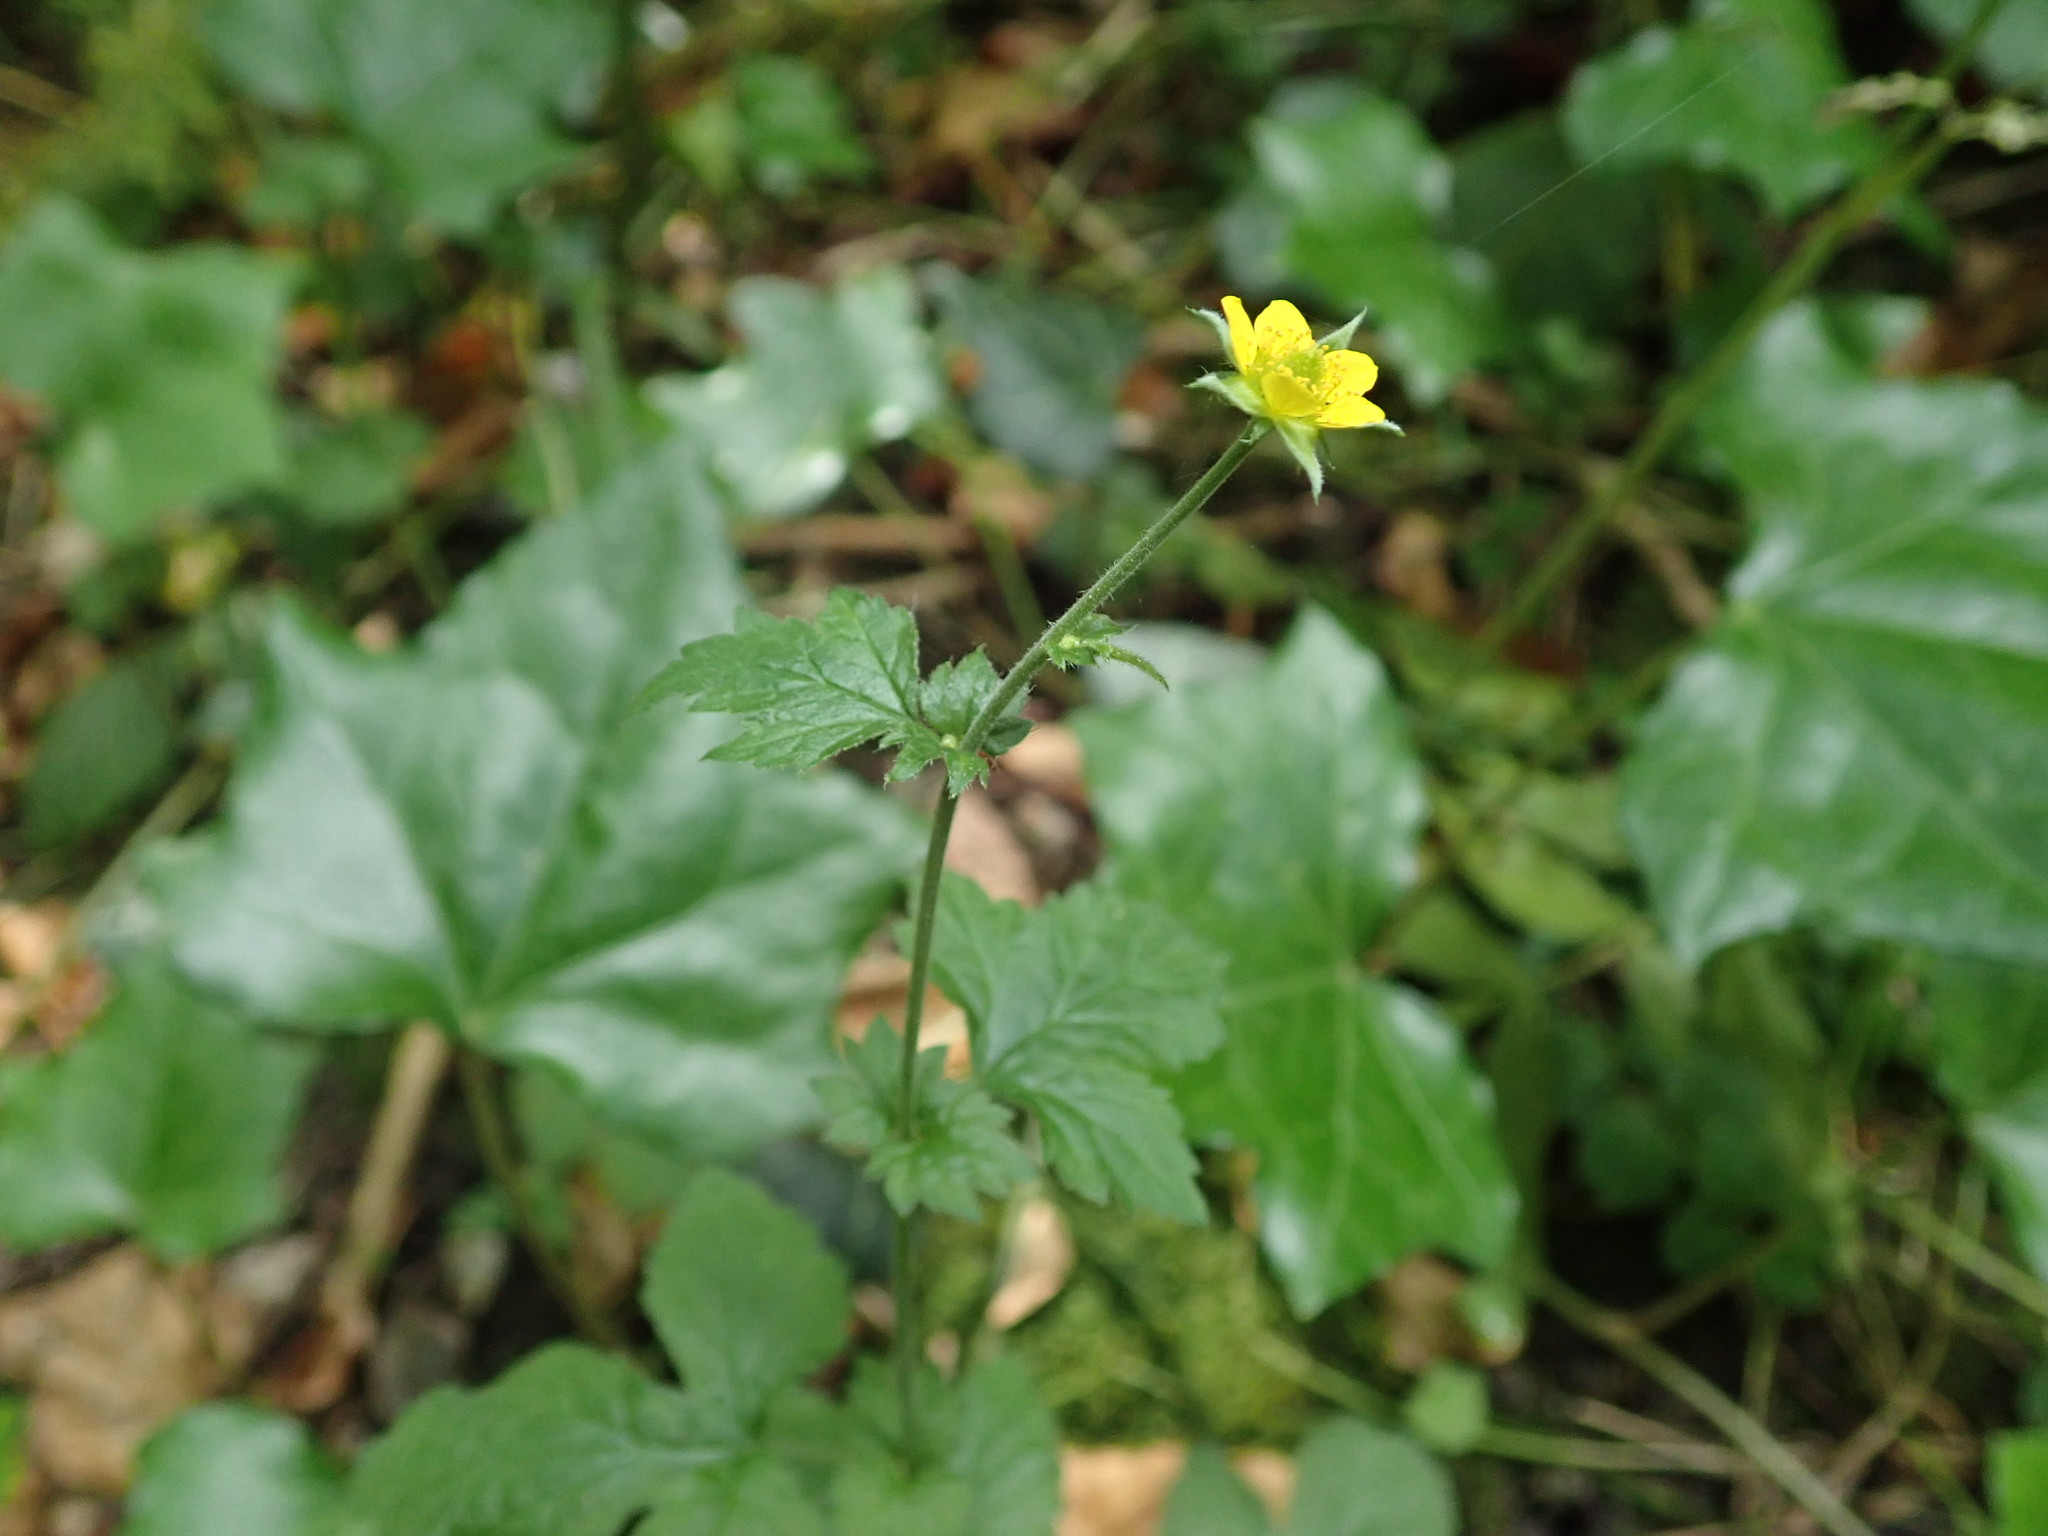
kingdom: Plantae
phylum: Tracheophyta
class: Magnoliopsida
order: Rosales
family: Rosaceae
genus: Geum
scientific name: Geum urbanum
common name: Wood avens
